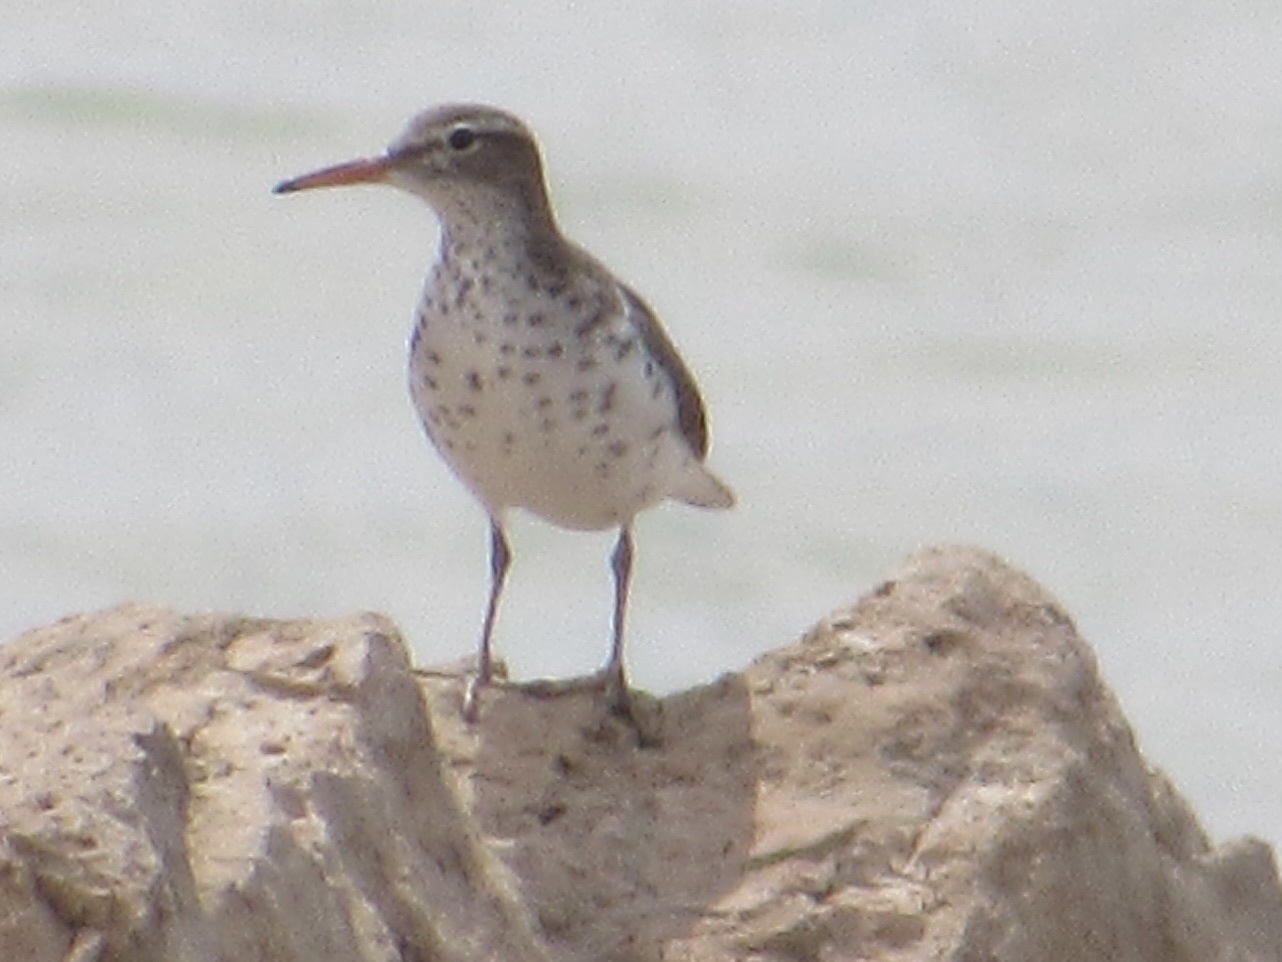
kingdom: Animalia
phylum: Chordata
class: Aves
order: Charadriiformes
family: Scolopacidae
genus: Actitis
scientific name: Actitis macularius
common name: Spotted sandpiper
